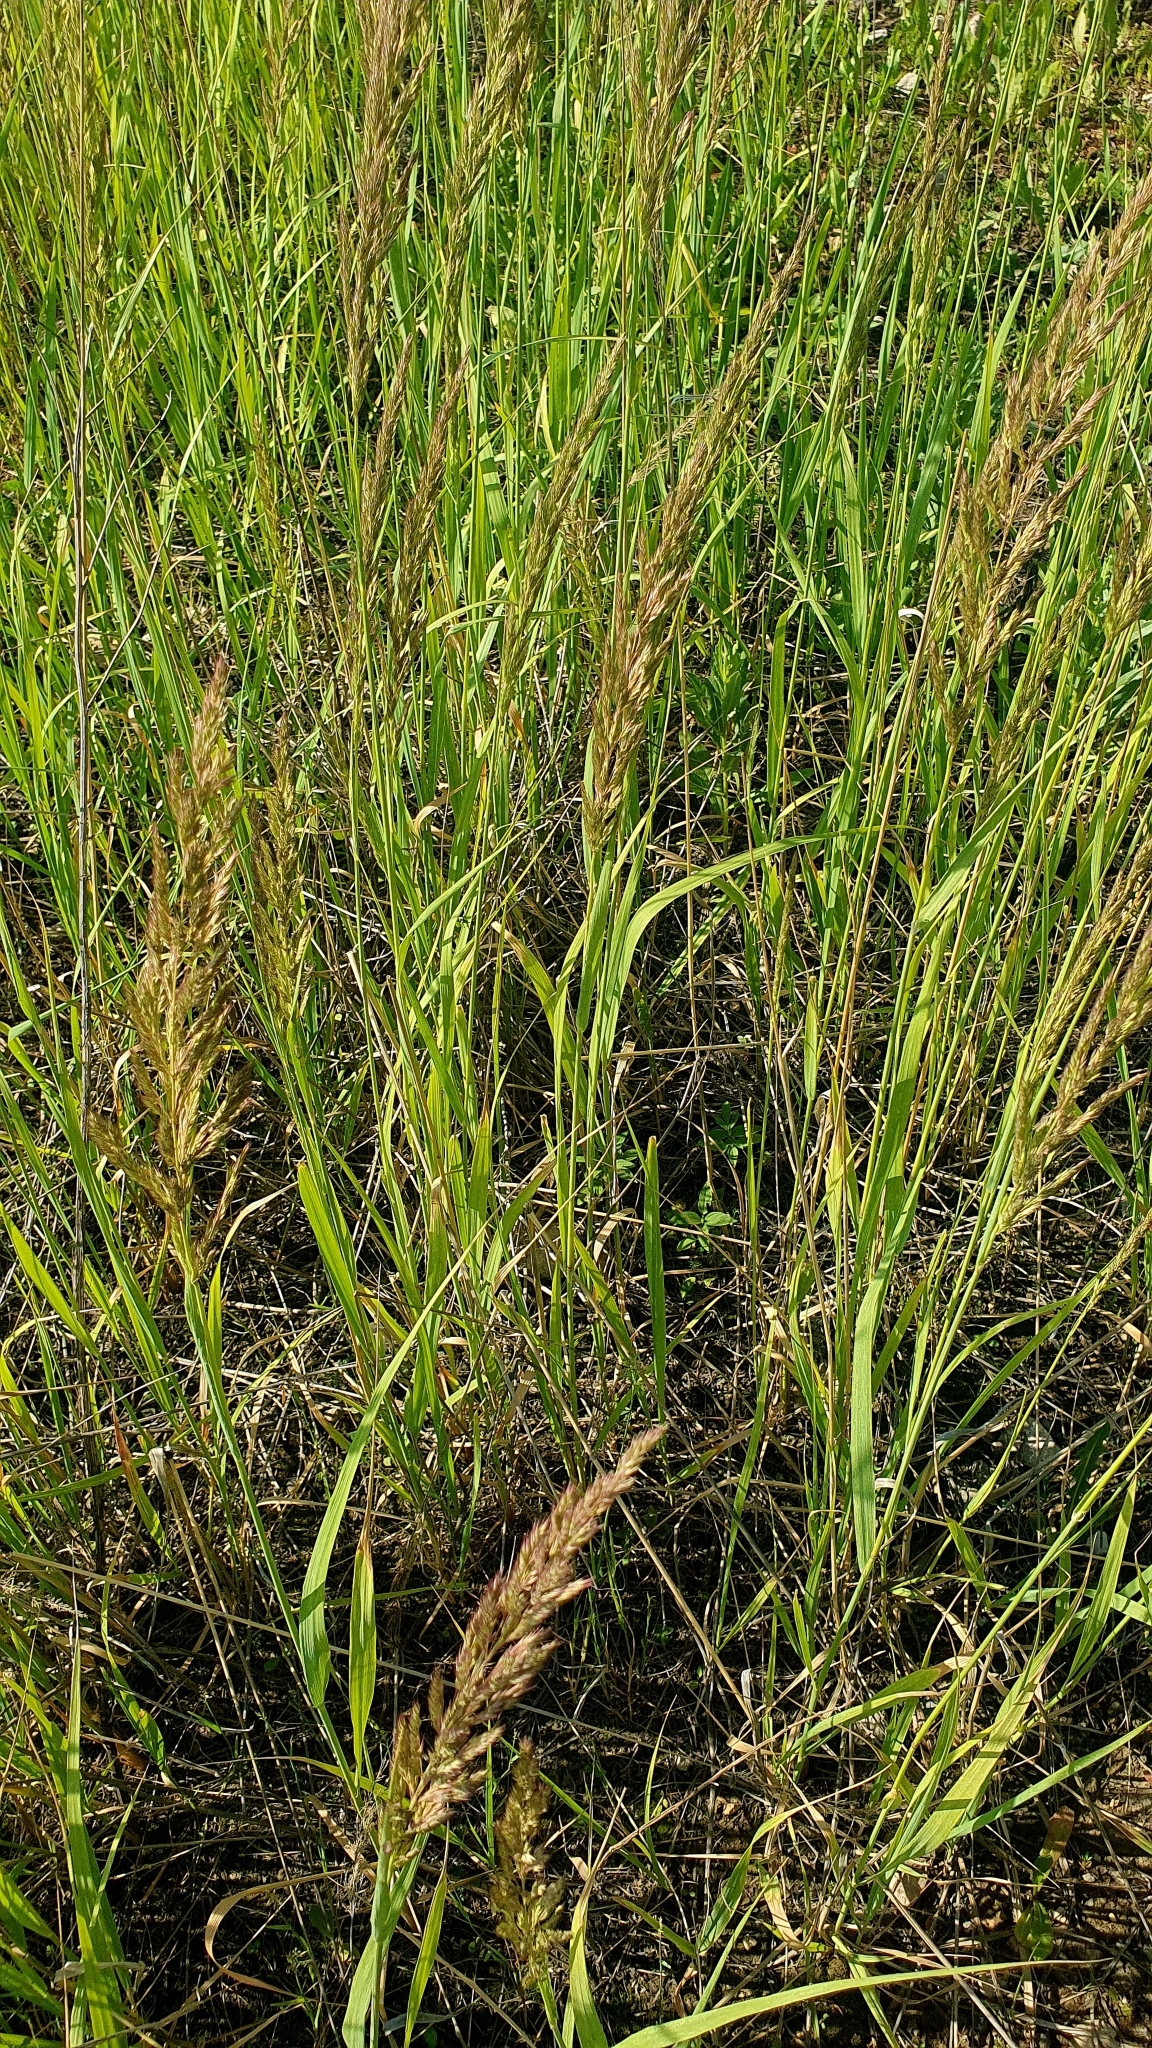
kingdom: Plantae
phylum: Tracheophyta
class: Liliopsida
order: Poales
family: Poaceae
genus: Calamagrostis
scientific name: Calamagrostis epigejos
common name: Wood small-reed
